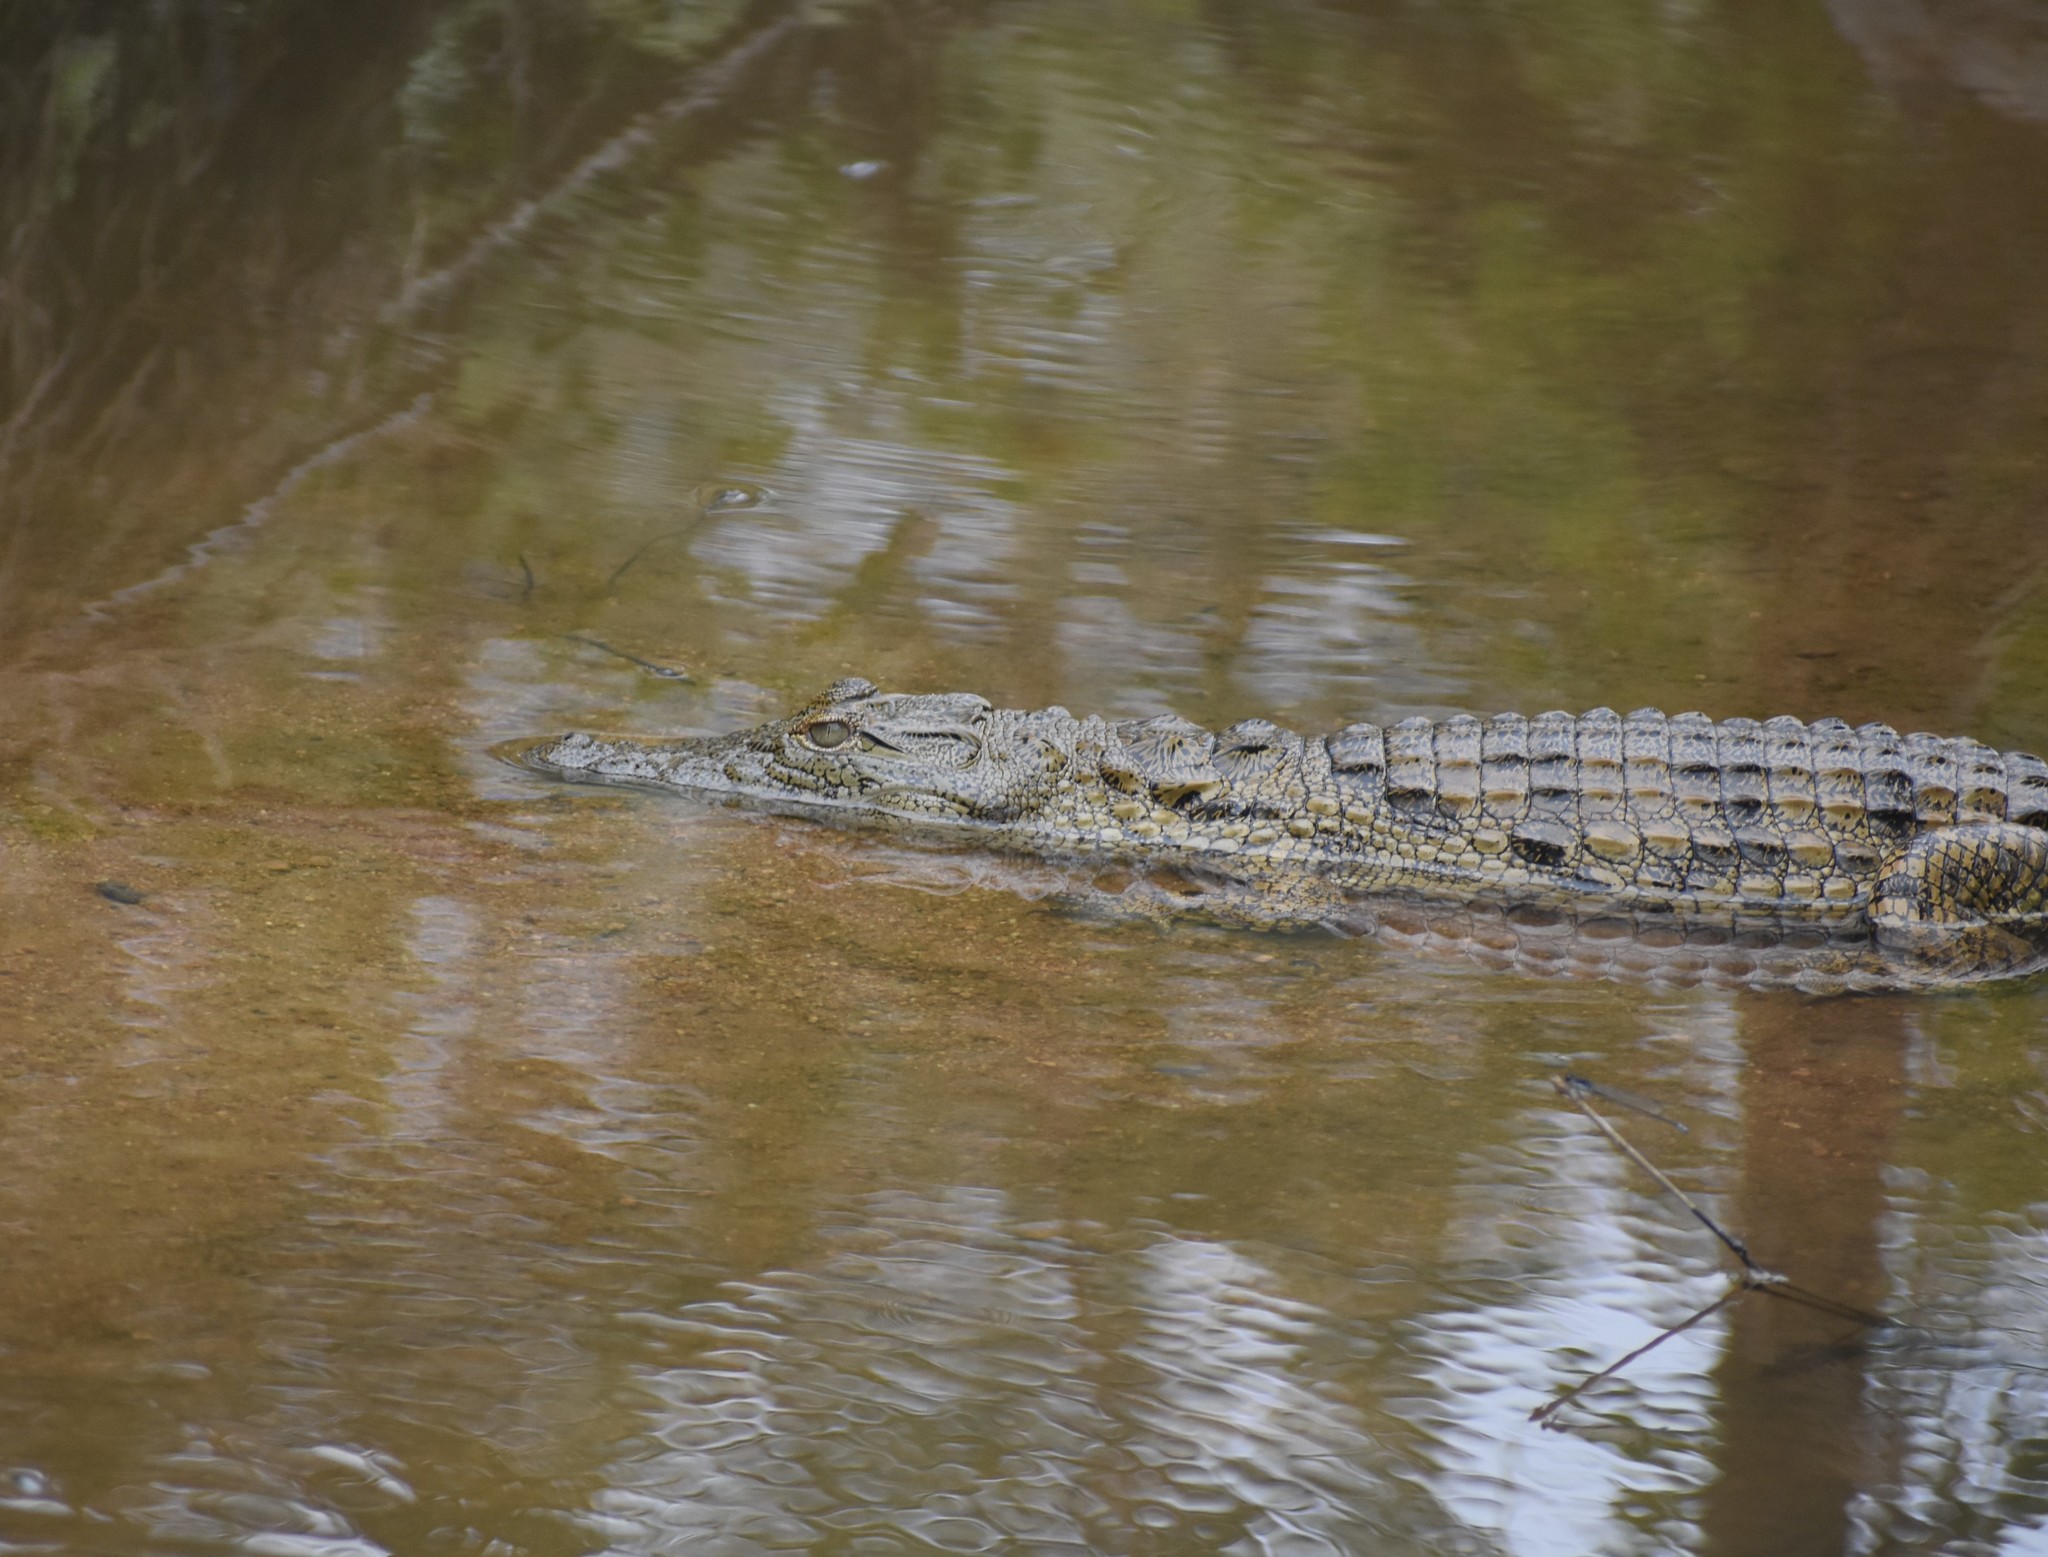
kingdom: Animalia
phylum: Chordata
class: Crocodylia
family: Crocodylidae
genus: Crocodylus
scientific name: Crocodylus niloticus
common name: Nile crocodile
